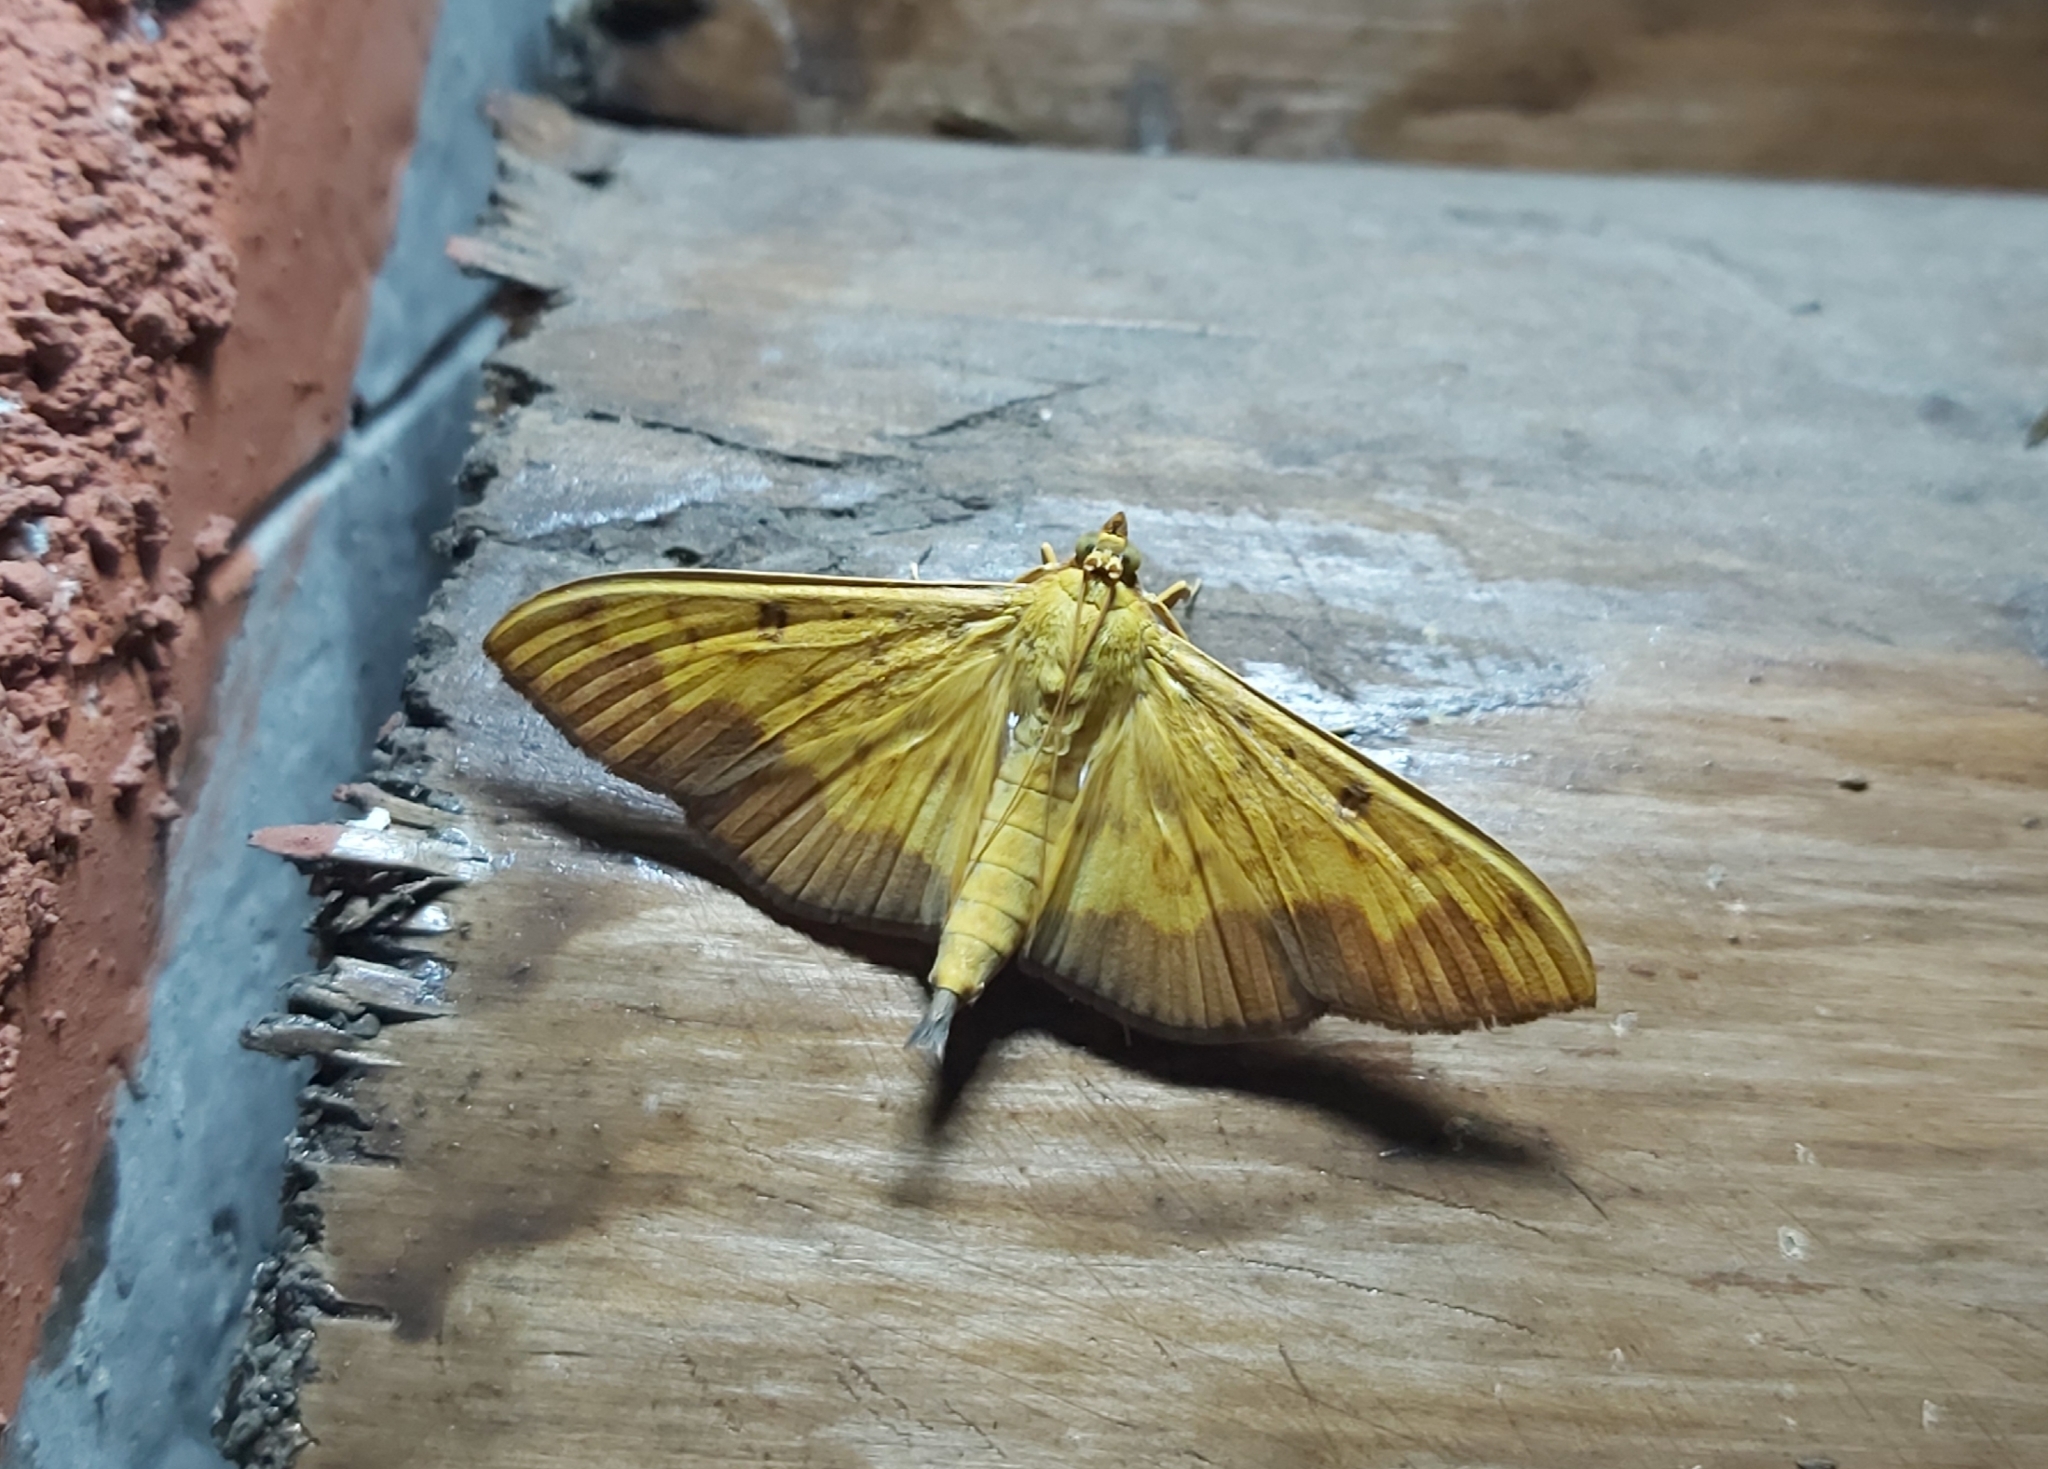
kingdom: Animalia
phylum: Arthropoda
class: Insecta
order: Lepidoptera
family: Crambidae
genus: Botyodes
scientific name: Botyodes asialis
